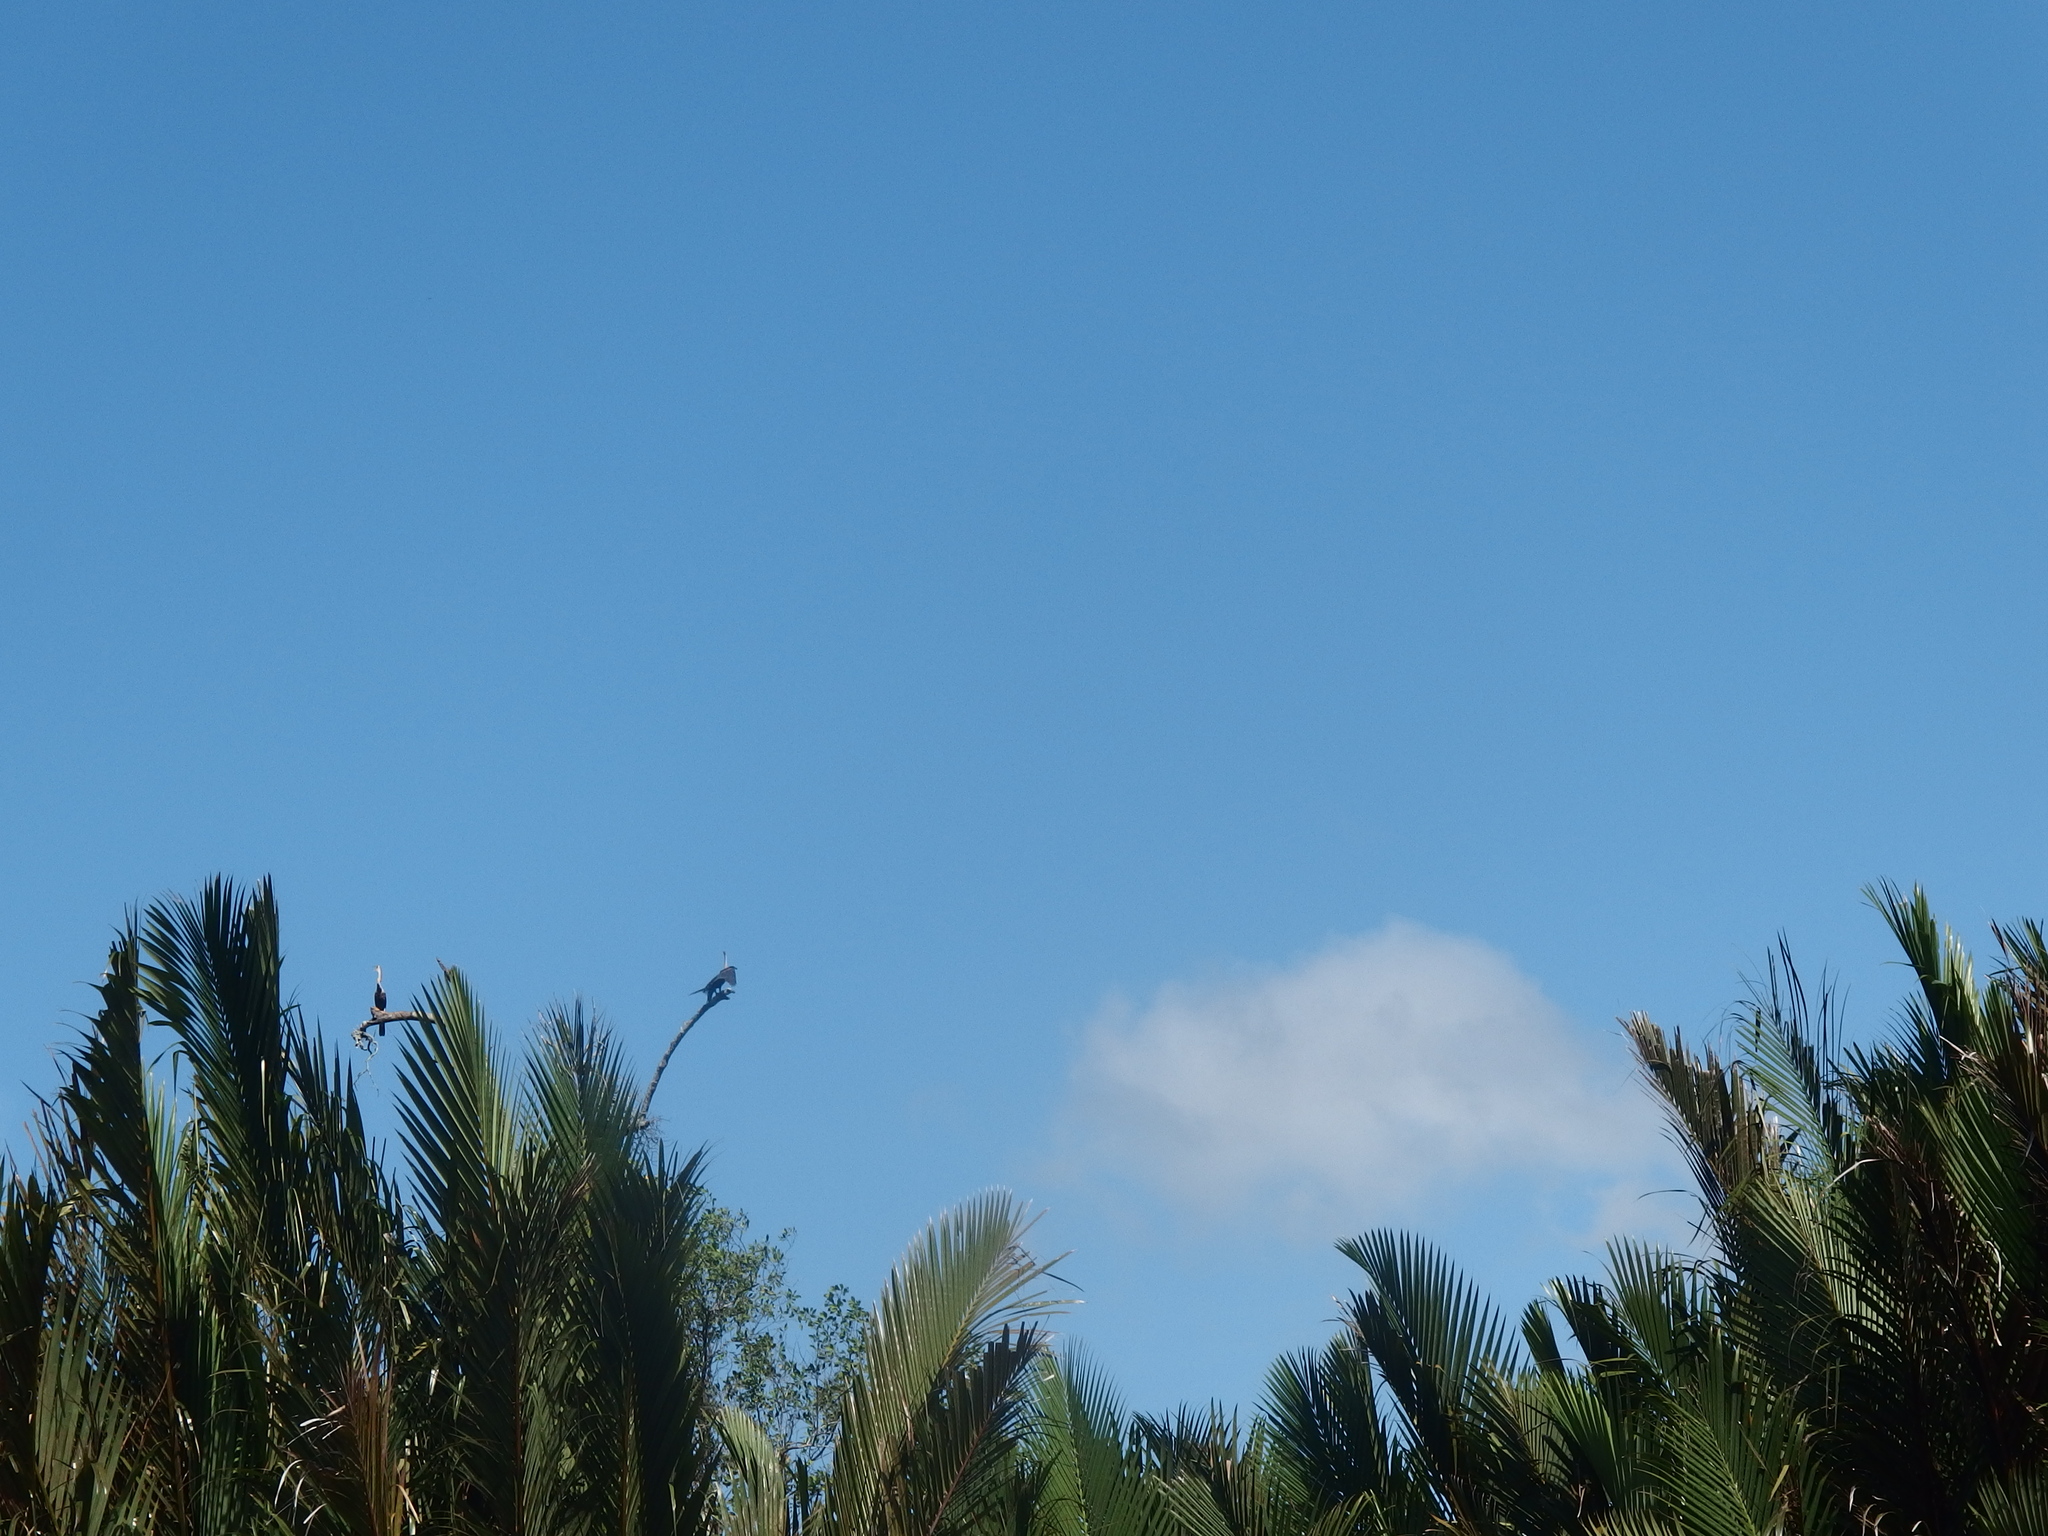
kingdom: Animalia
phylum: Chordata
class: Aves
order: Suliformes
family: Anhingidae
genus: Anhinga
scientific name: Anhinga melanogaster
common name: Oriental darter
